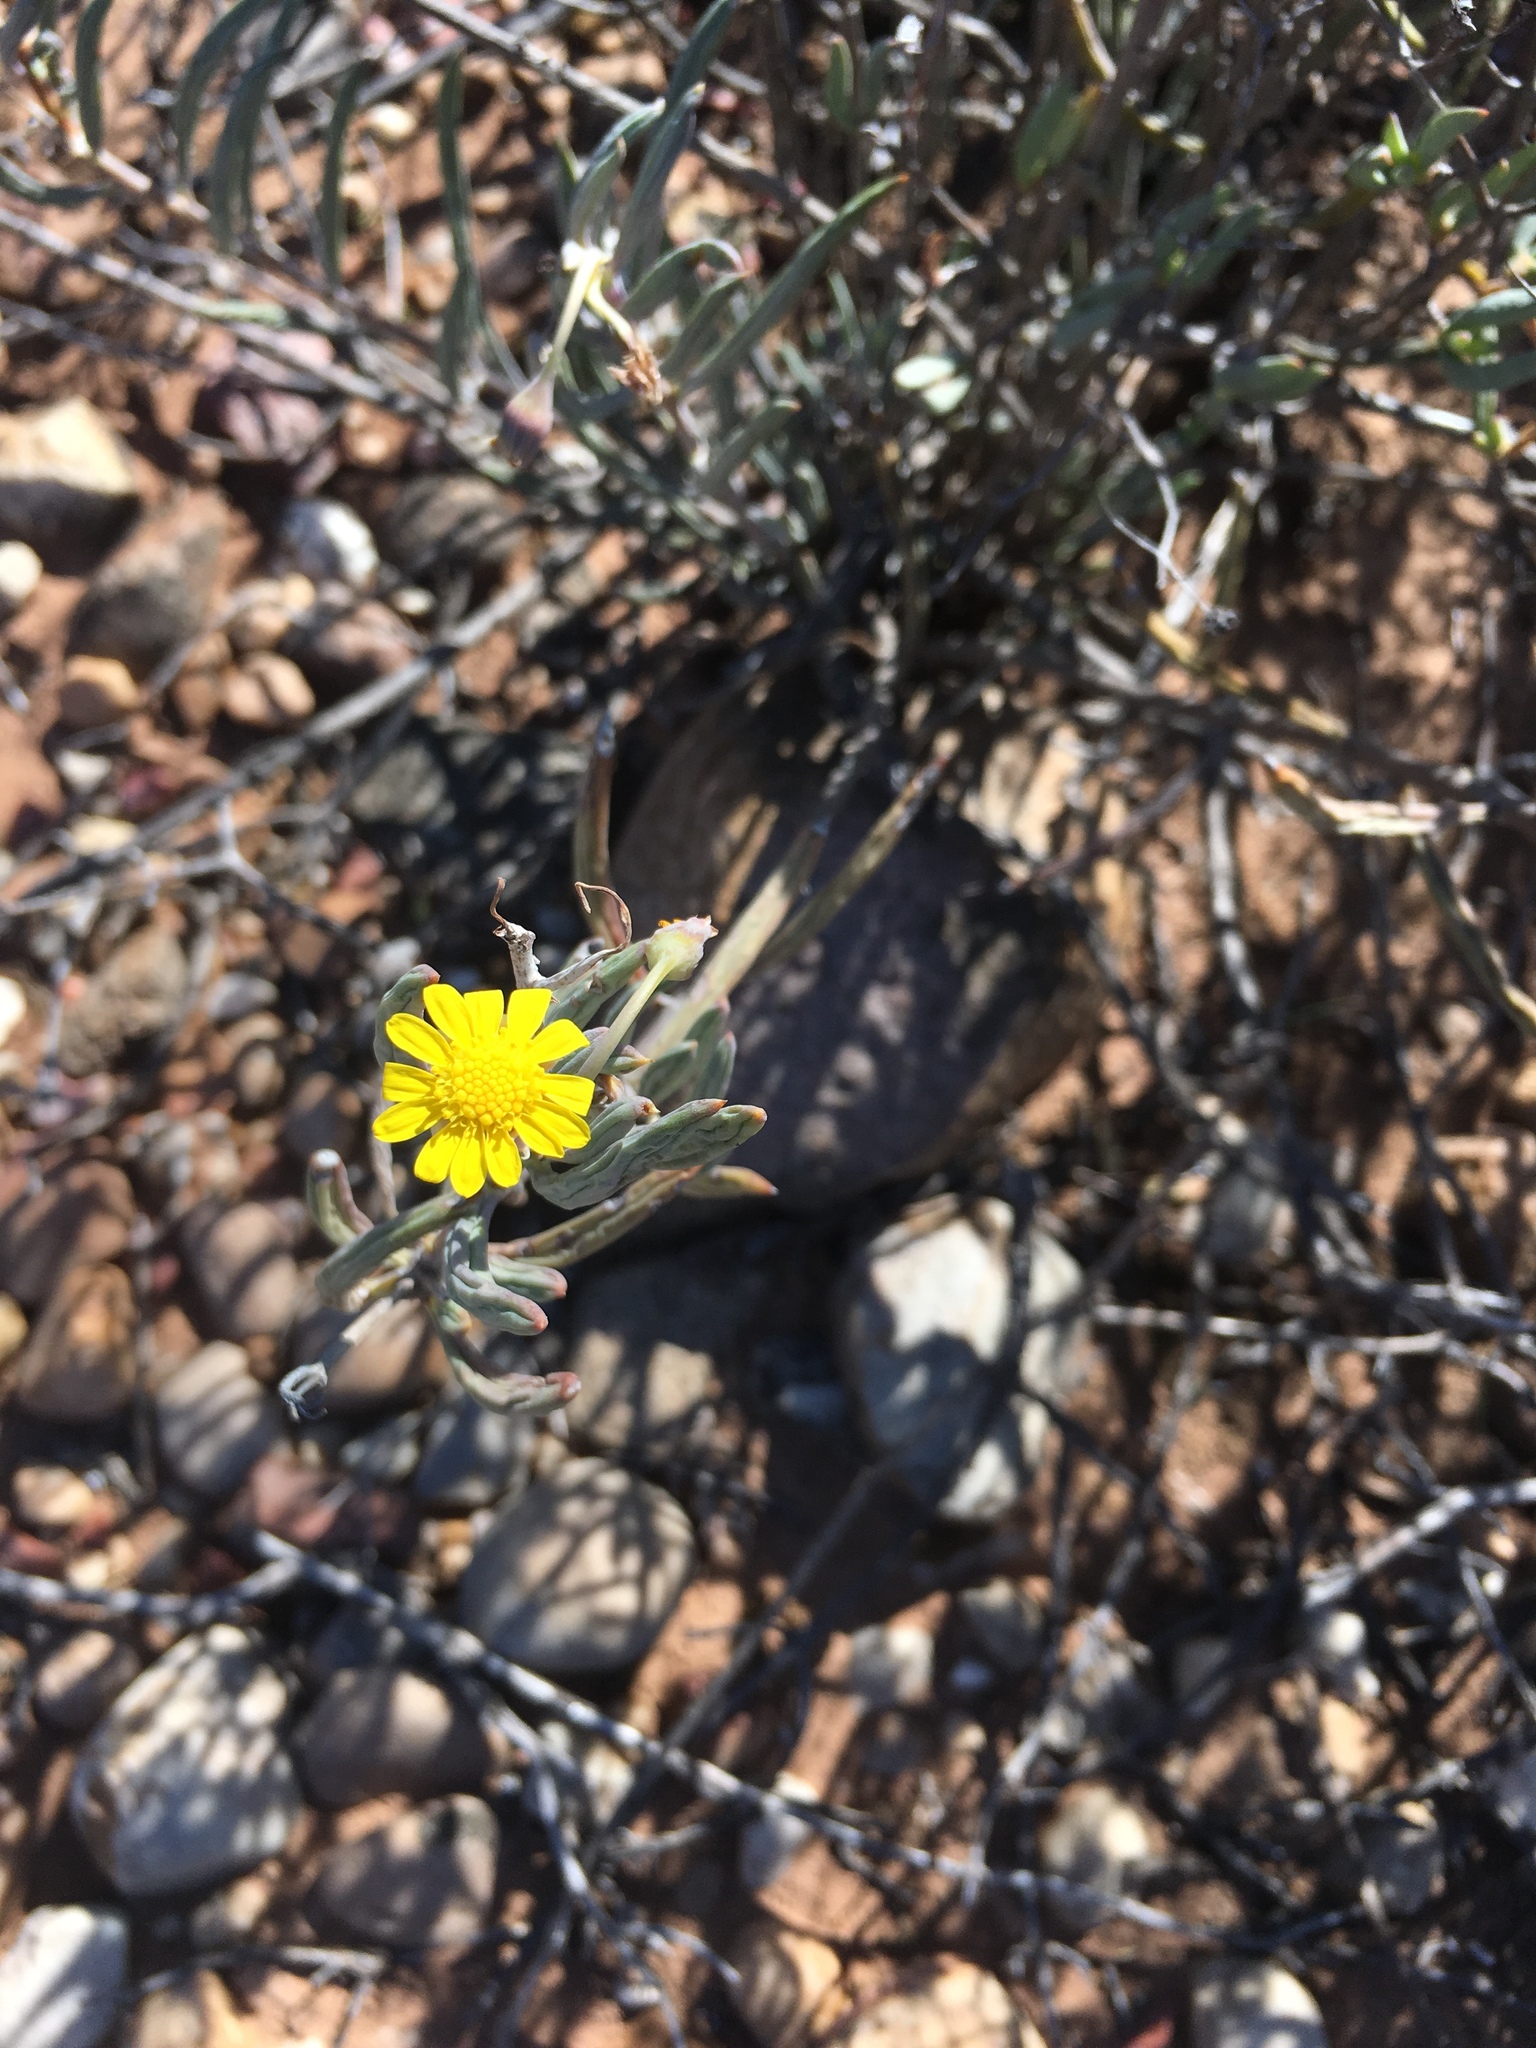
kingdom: Plantae
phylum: Tracheophyta
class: Magnoliopsida
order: Asterales
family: Asteraceae
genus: Crassothonna
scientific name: Crassothonna cacalioides
